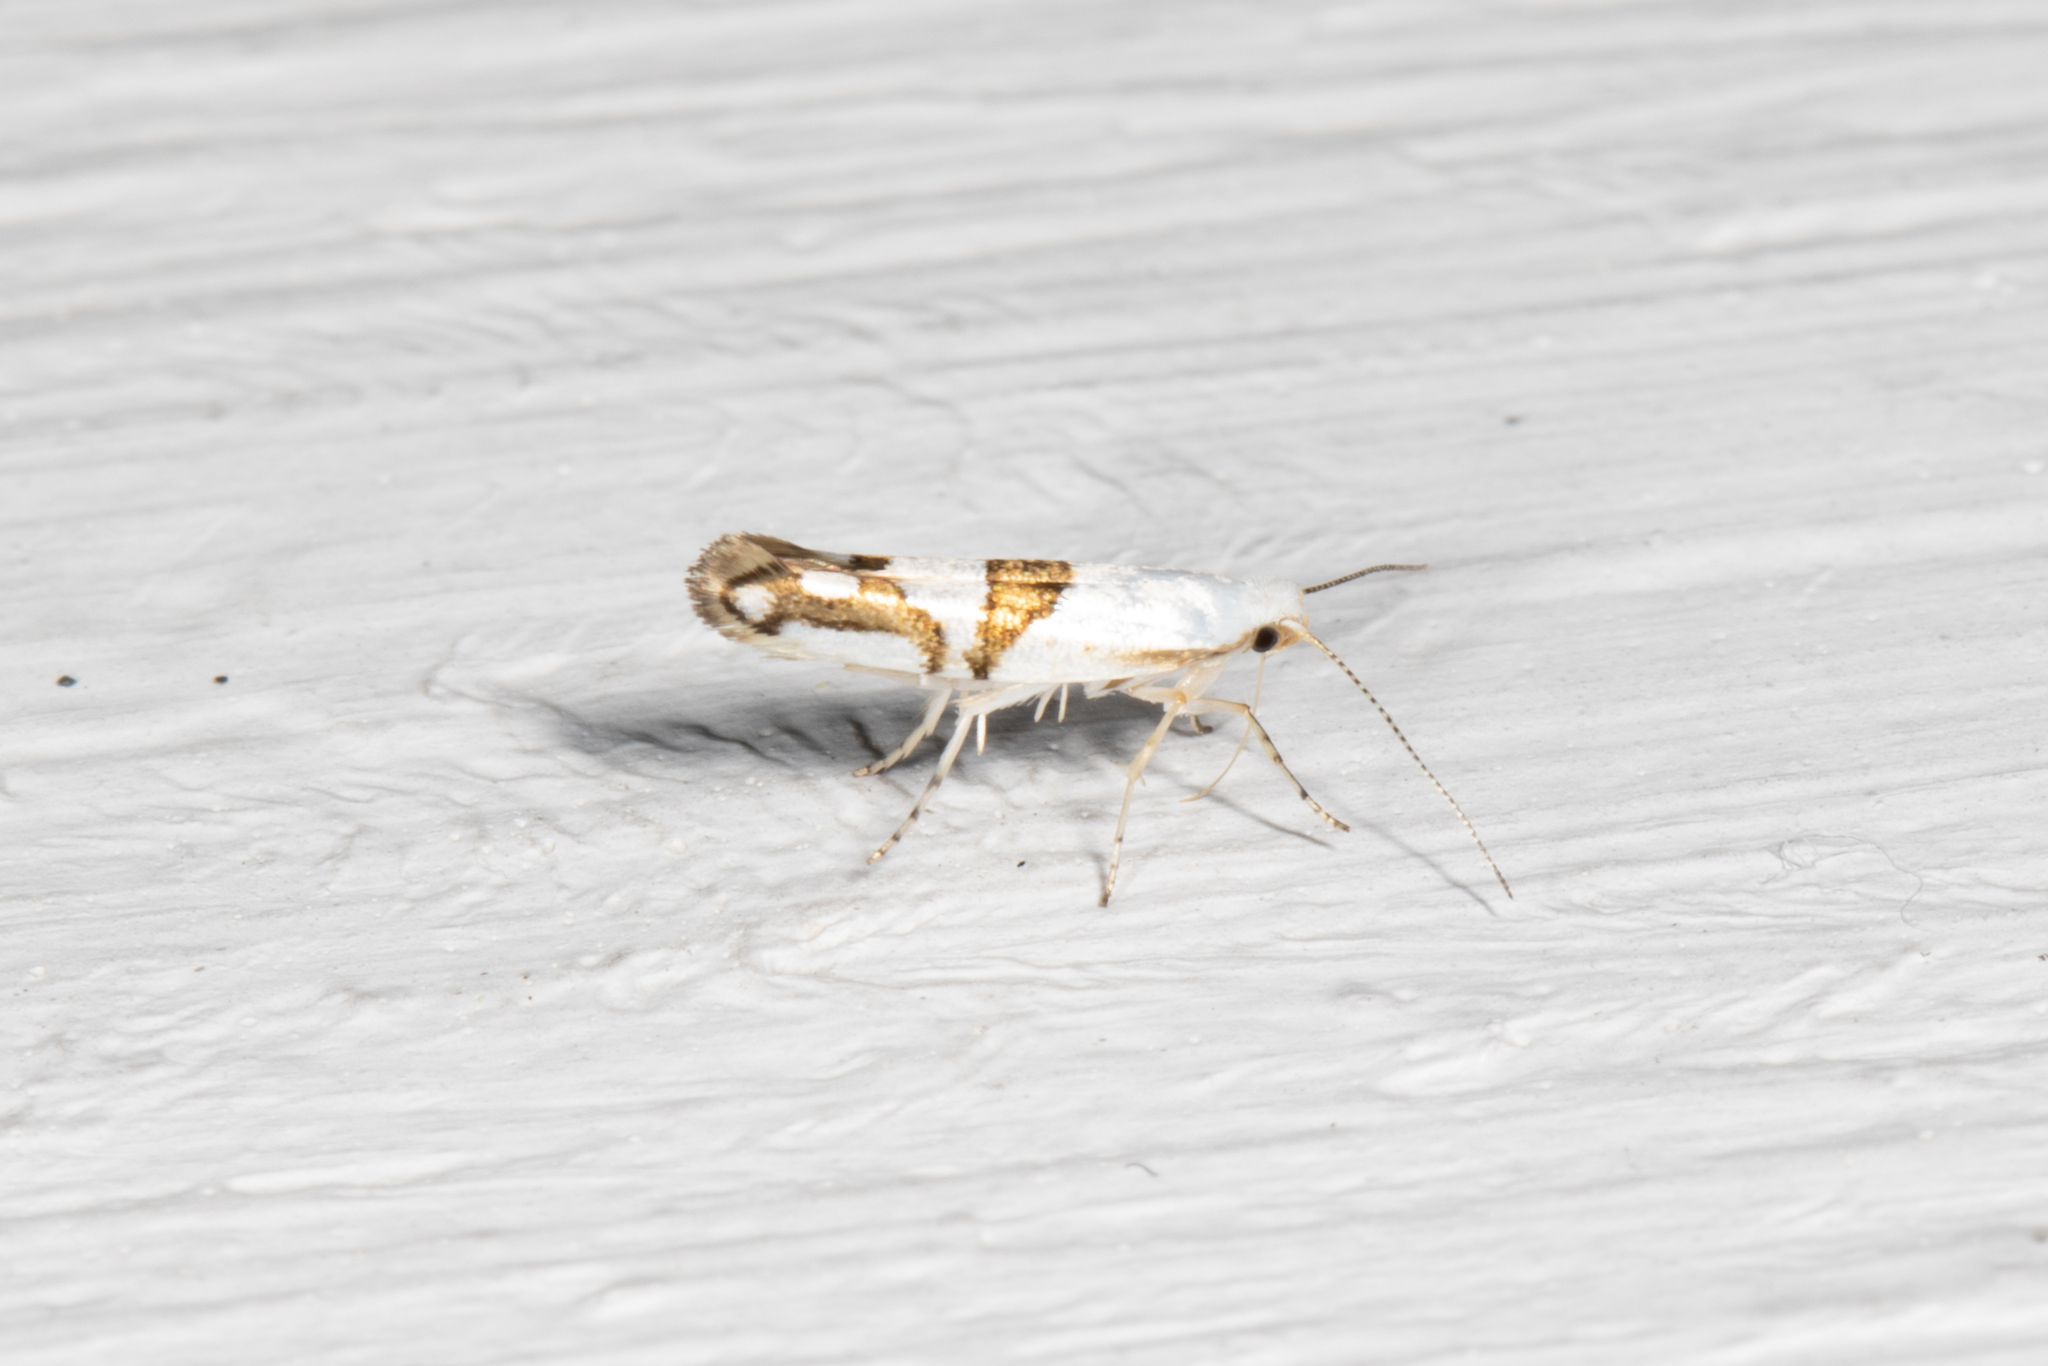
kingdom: Animalia
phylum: Arthropoda
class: Insecta
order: Lepidoptera
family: Argyresthiidae
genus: Argyresthia
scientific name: Argyresthia oreasella
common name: Cherry shoot borer moth
